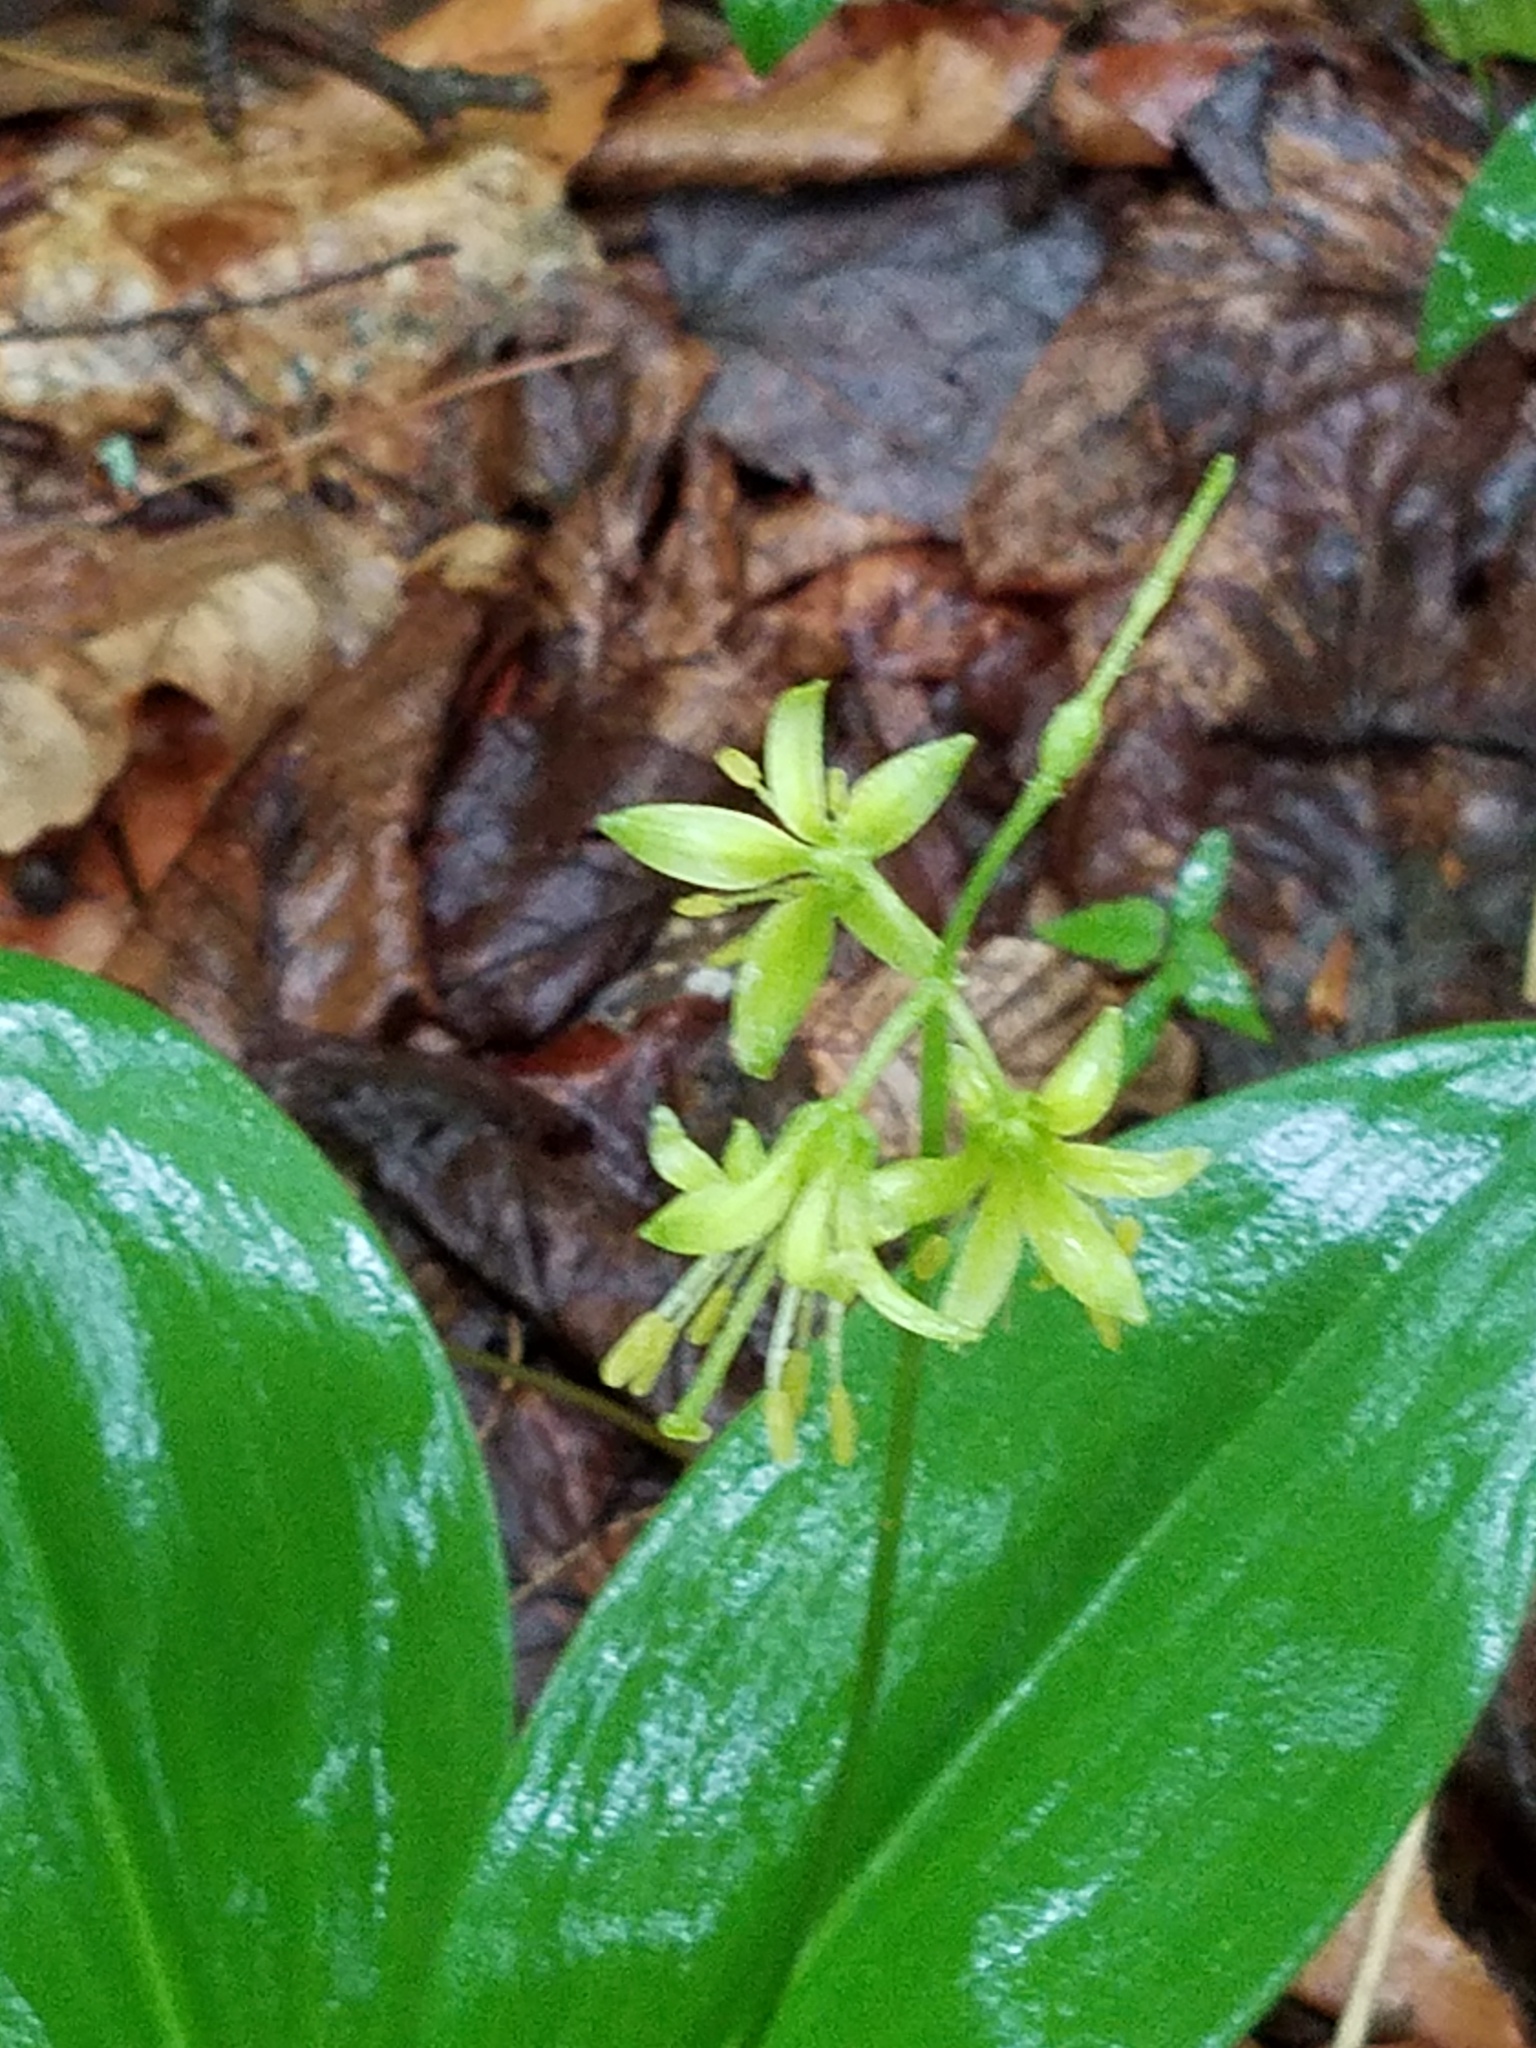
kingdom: Plantae
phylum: Tracheophyta
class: Liliopsida
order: Liliales
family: Liliaceae
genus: Clintonia
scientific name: Clintonia borealis
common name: Yellow clintonia
